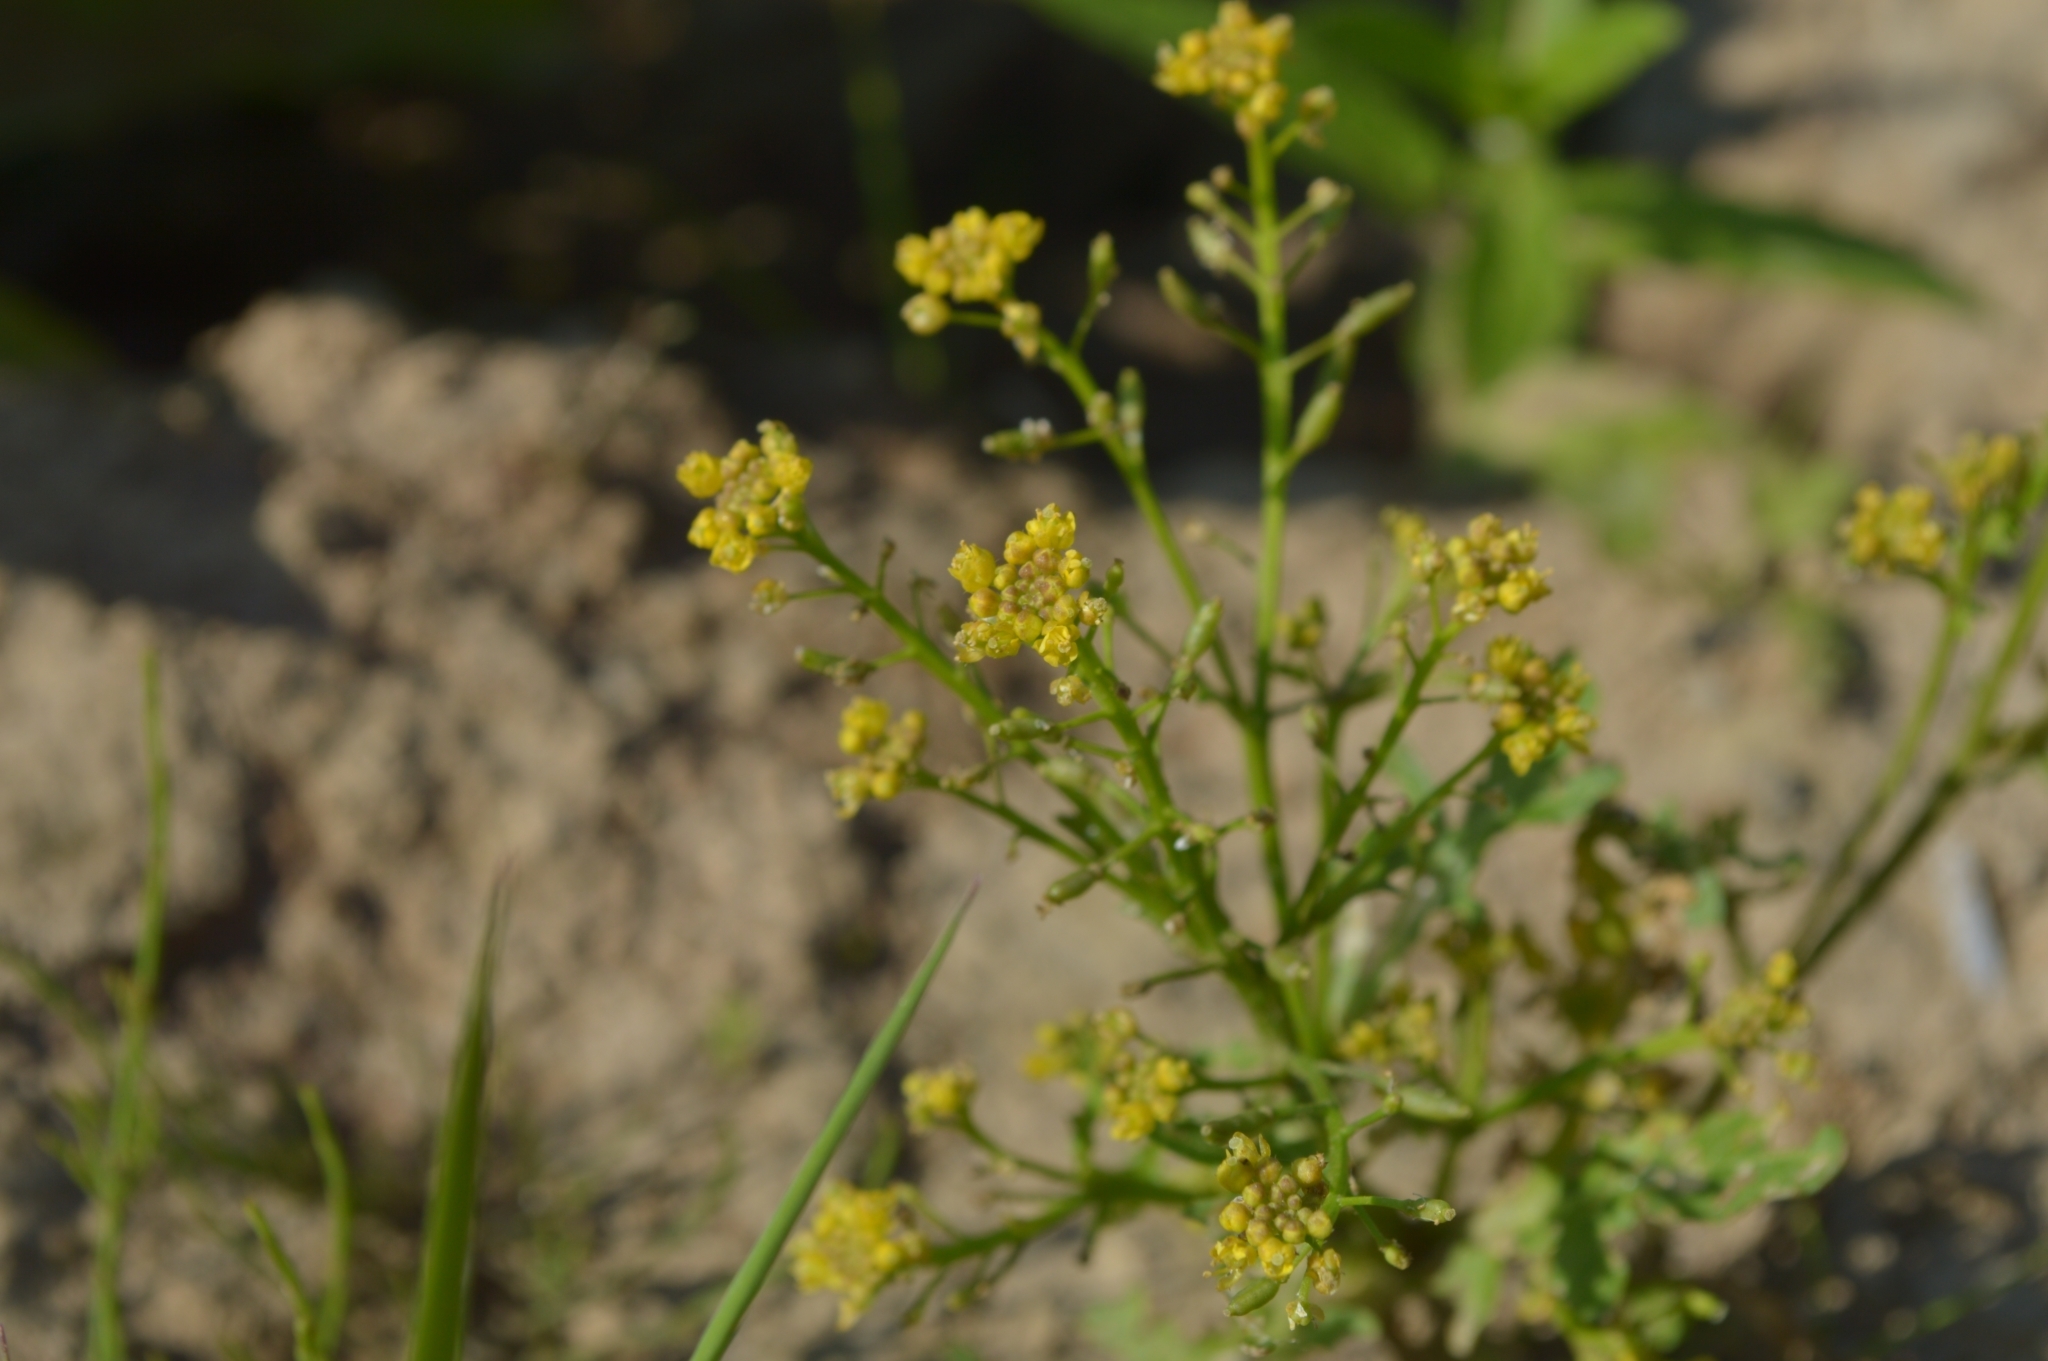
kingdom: Plantae
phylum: Tracheophyta
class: Magnoliopsida
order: Brassicales
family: Brassicaceae
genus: Rorippa
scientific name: Rorippa palustris
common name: Marsh yellow-cress
